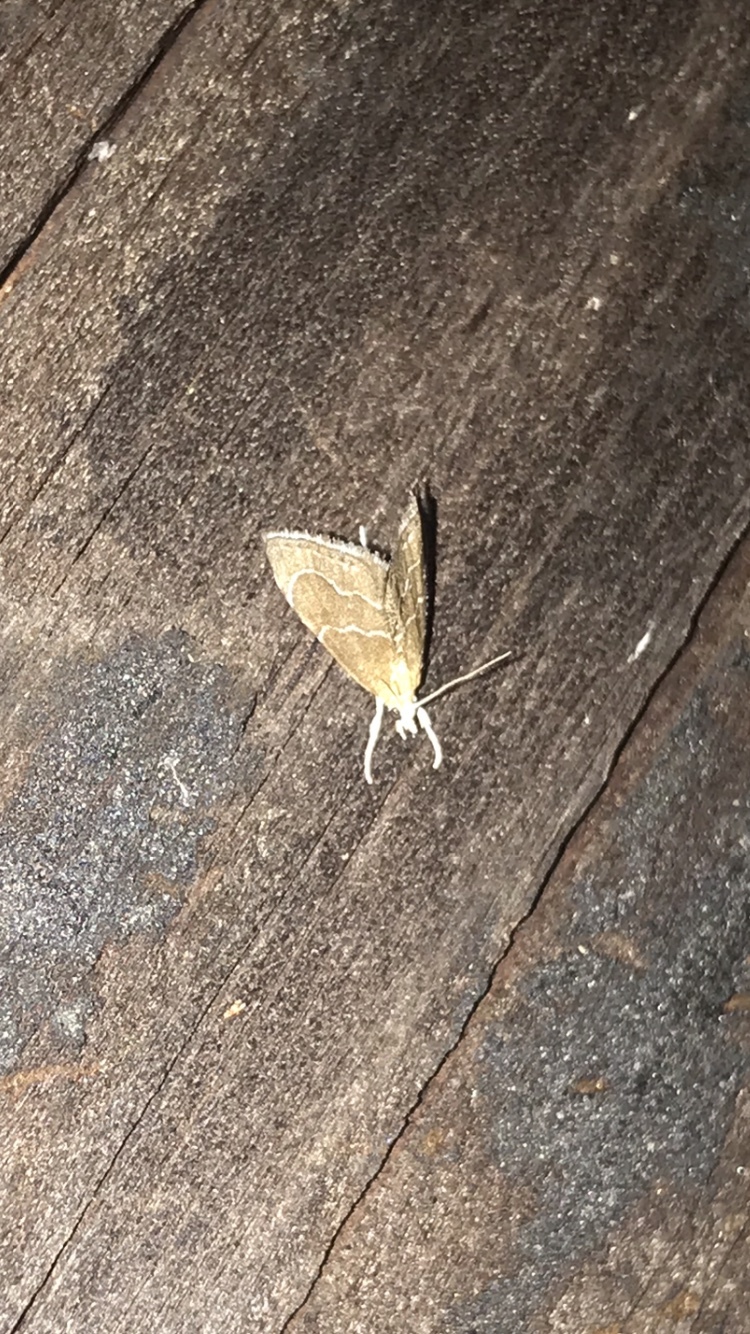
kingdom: Animalia
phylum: Arthropoda
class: Insecta
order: Lepidoptera
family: Crambidae
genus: Stegea
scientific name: Stegea eripalis
